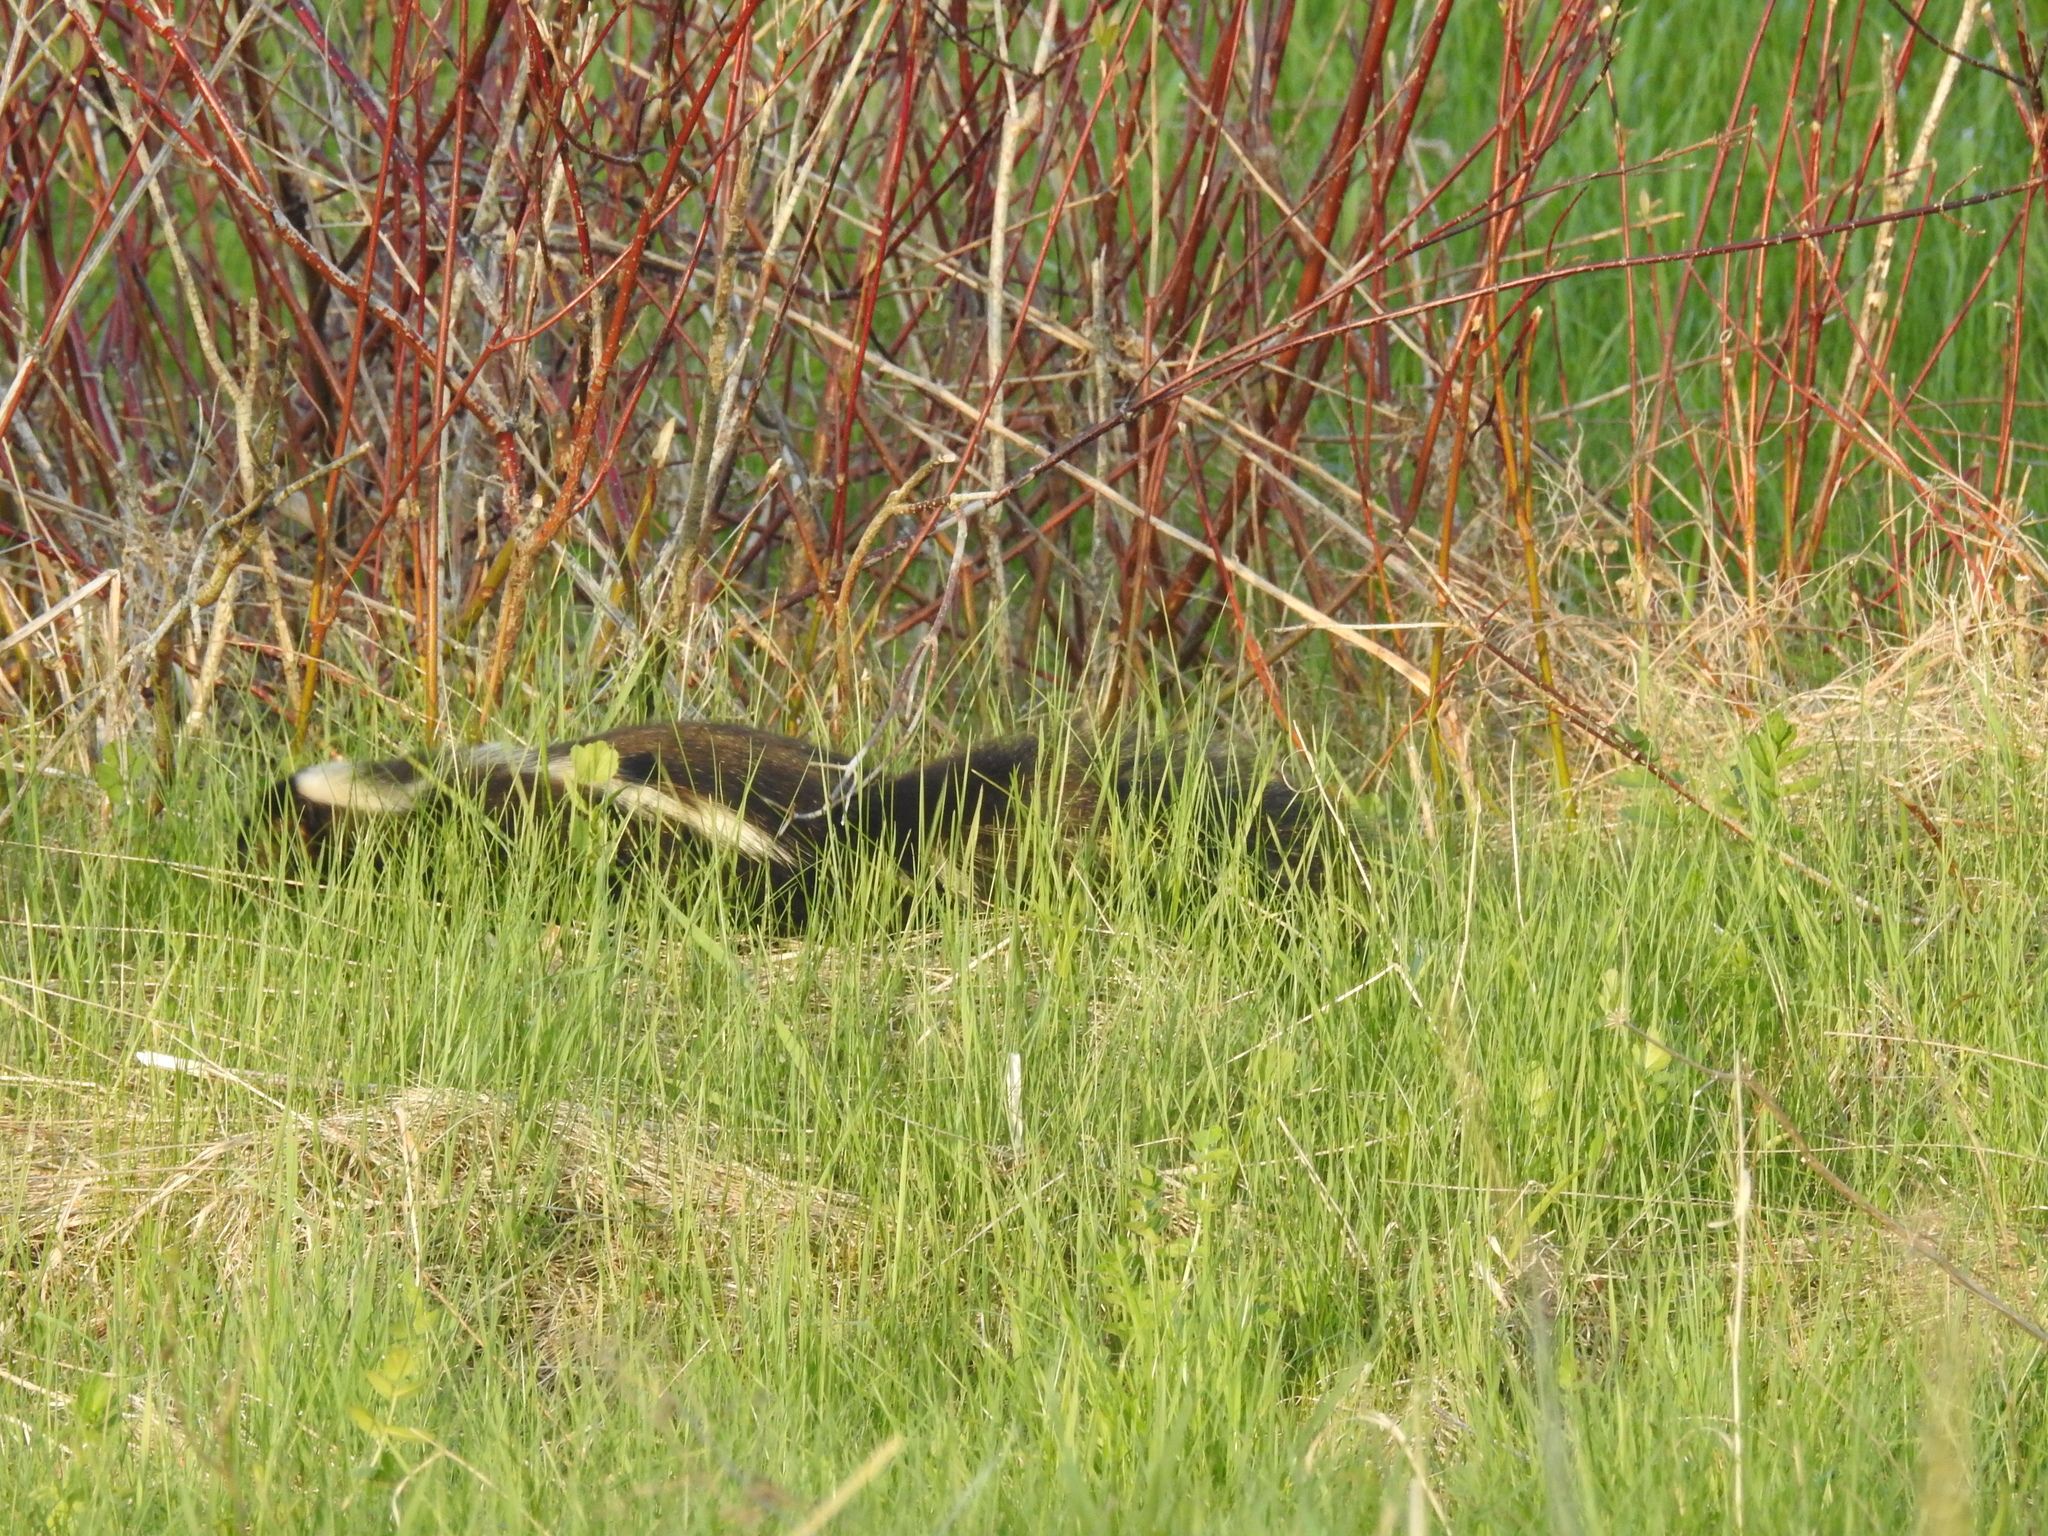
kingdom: Animalia
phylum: Chordata
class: Mammalia
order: Carnivora
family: Mephitidae
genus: Mephitis
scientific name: Mephitis mephitis
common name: Striped skunk
